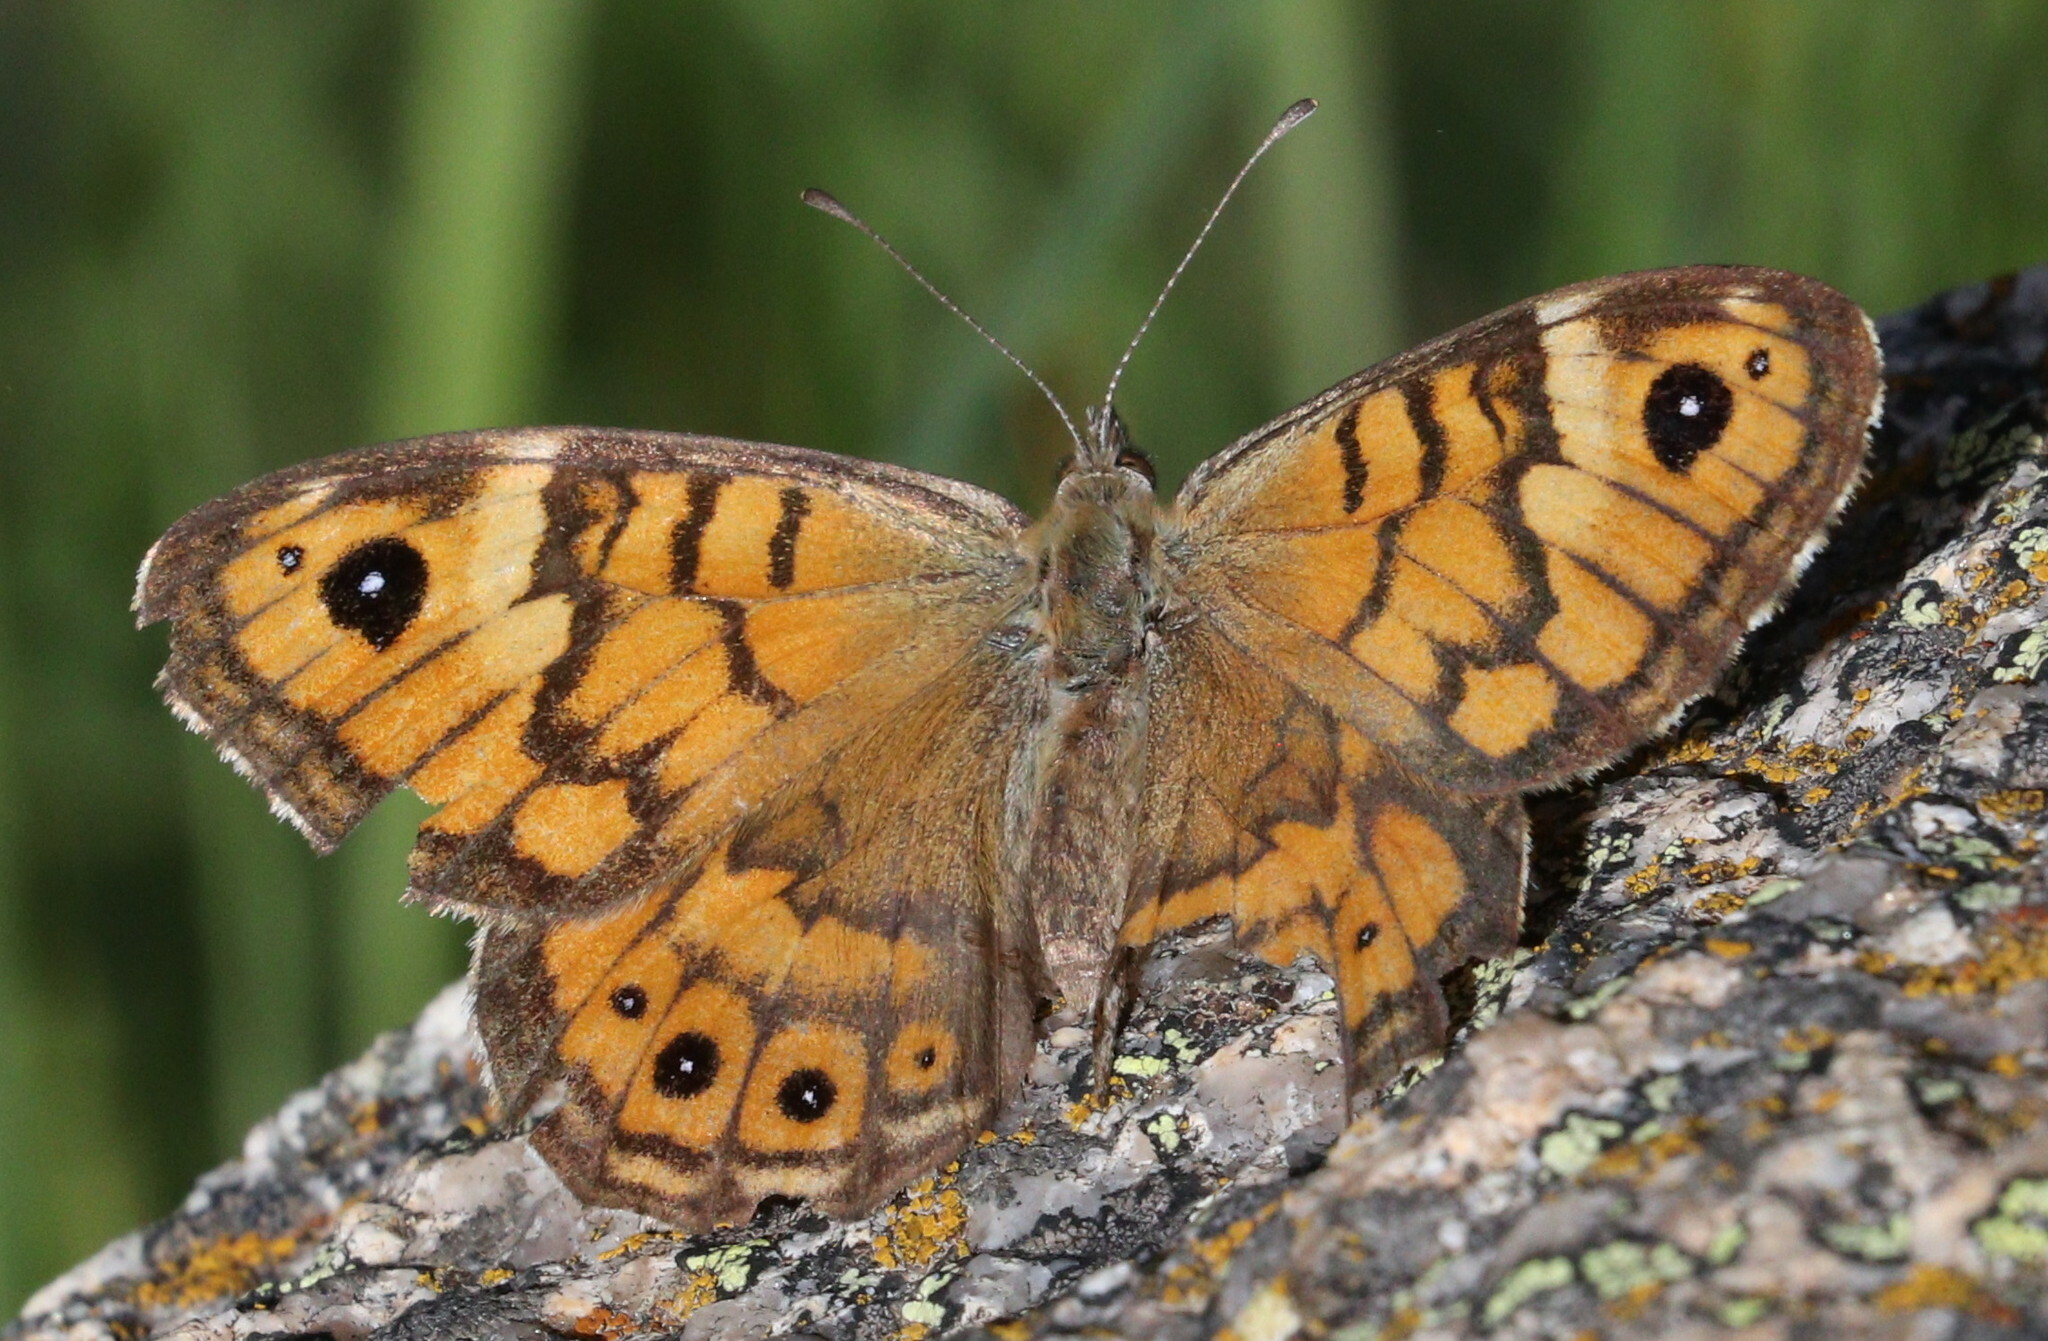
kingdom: Animalia
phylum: Arthropoda
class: Insecta
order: Lepidoptera
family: Nymphalidae
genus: Pararge
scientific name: Pararge Lasiommata megera
